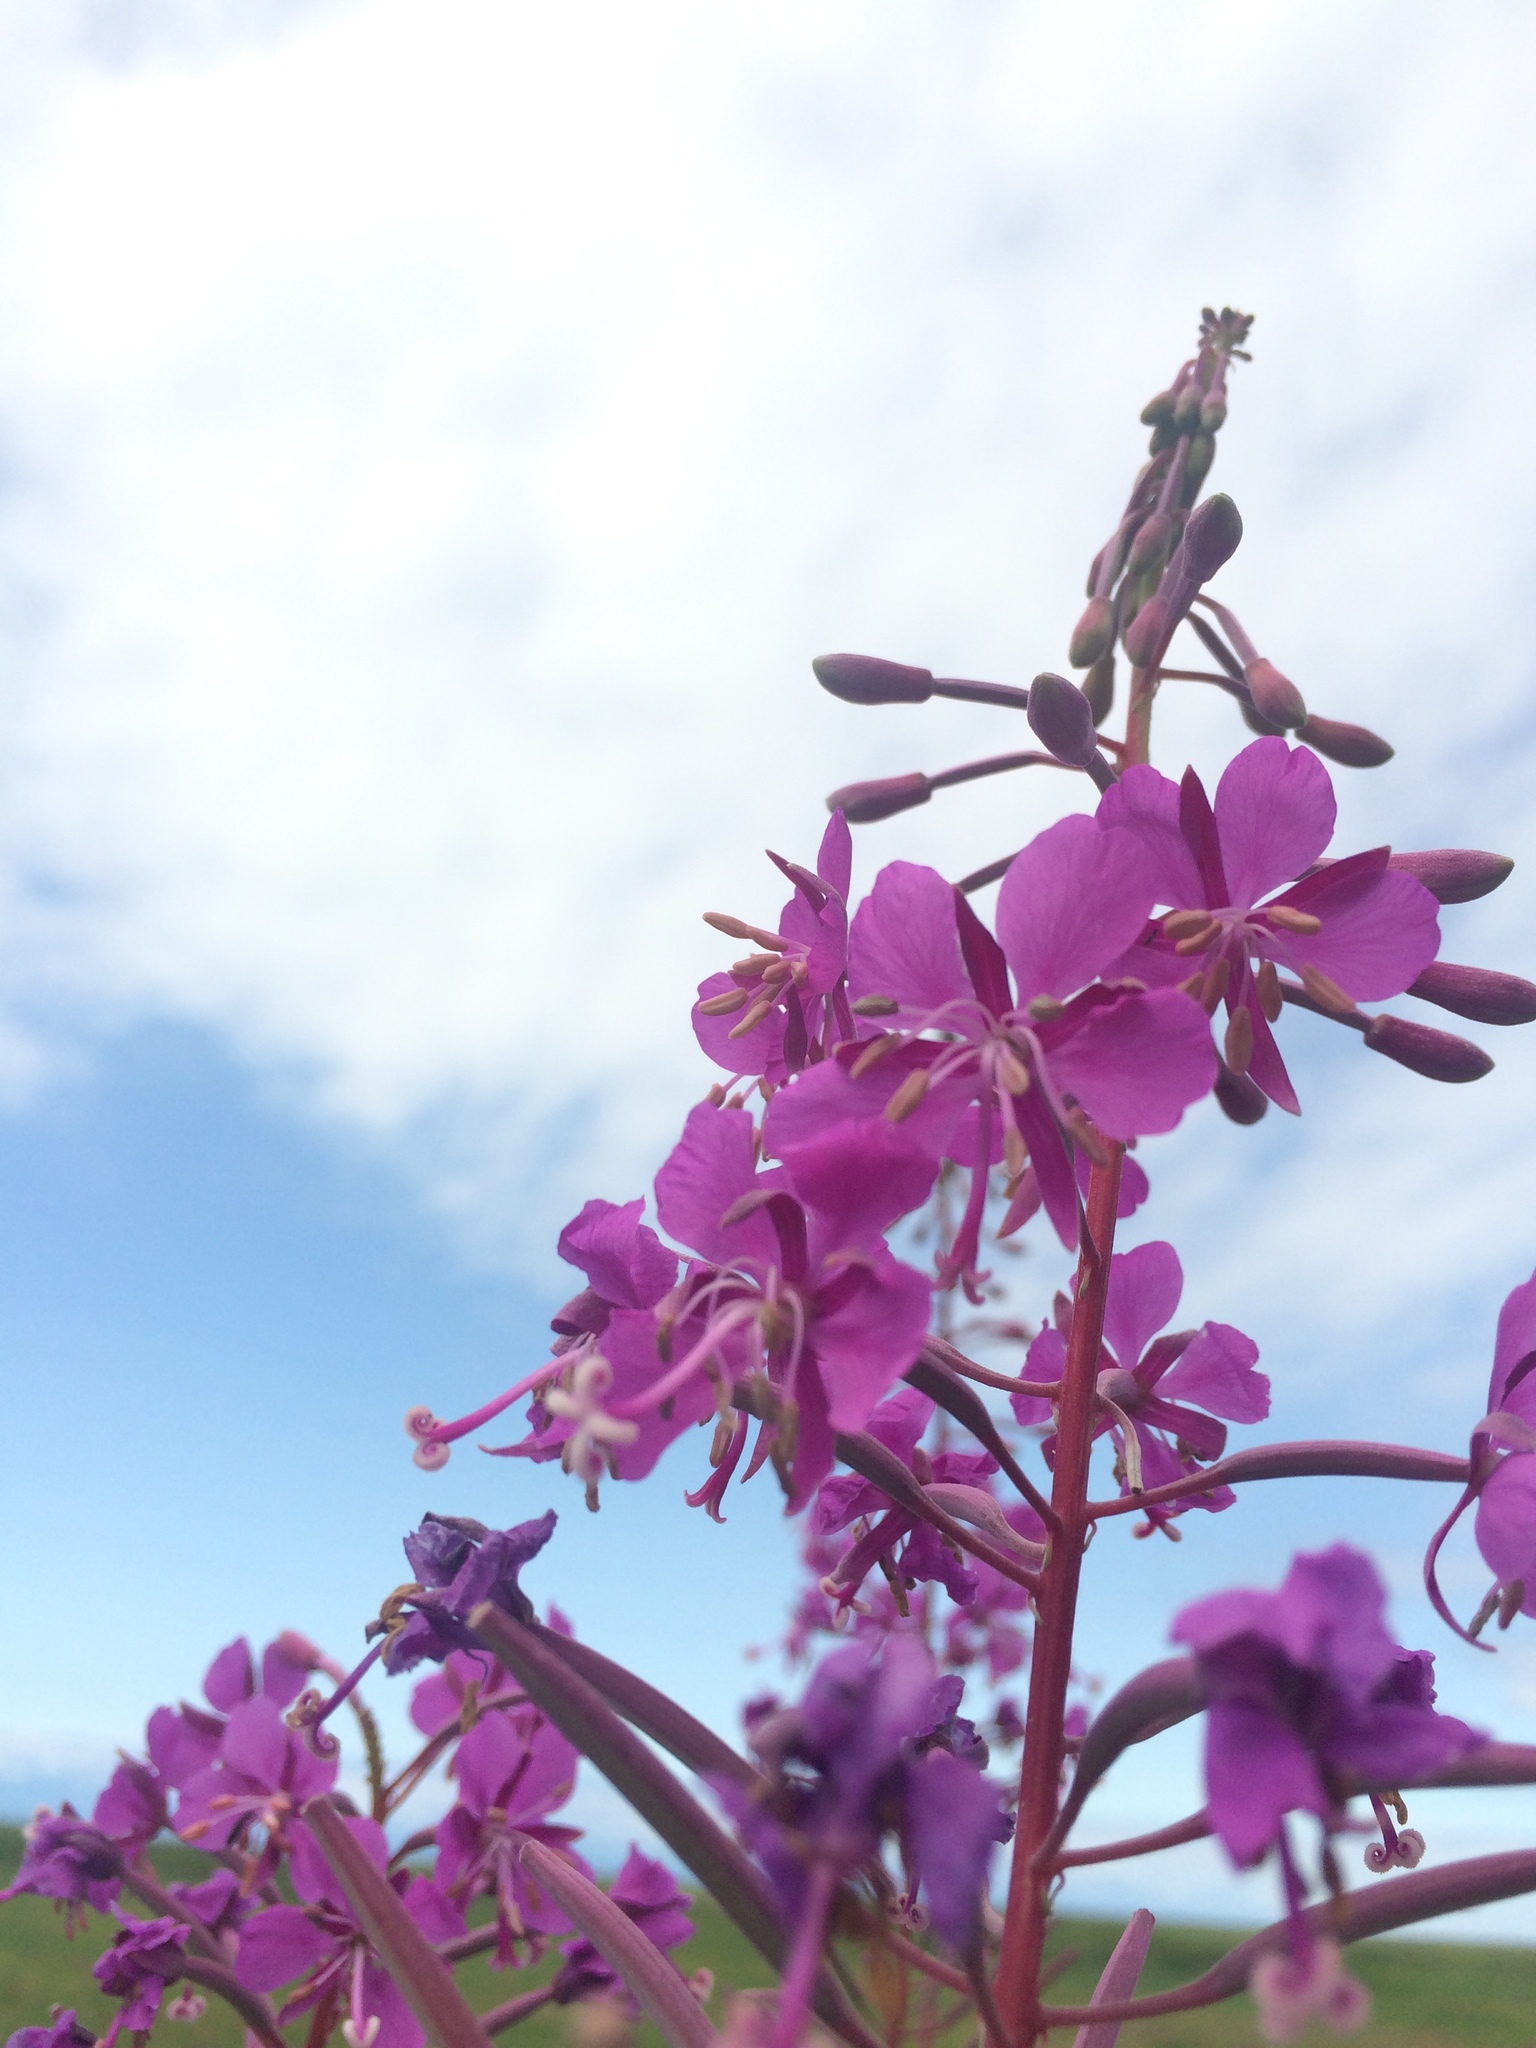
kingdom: Plantae
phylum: Tracheophyta
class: Magnoliopsida
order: Myrtales
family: Onagraceae
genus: Chamaenerion
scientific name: Chamaenerion angustifolium
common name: Fireweed
